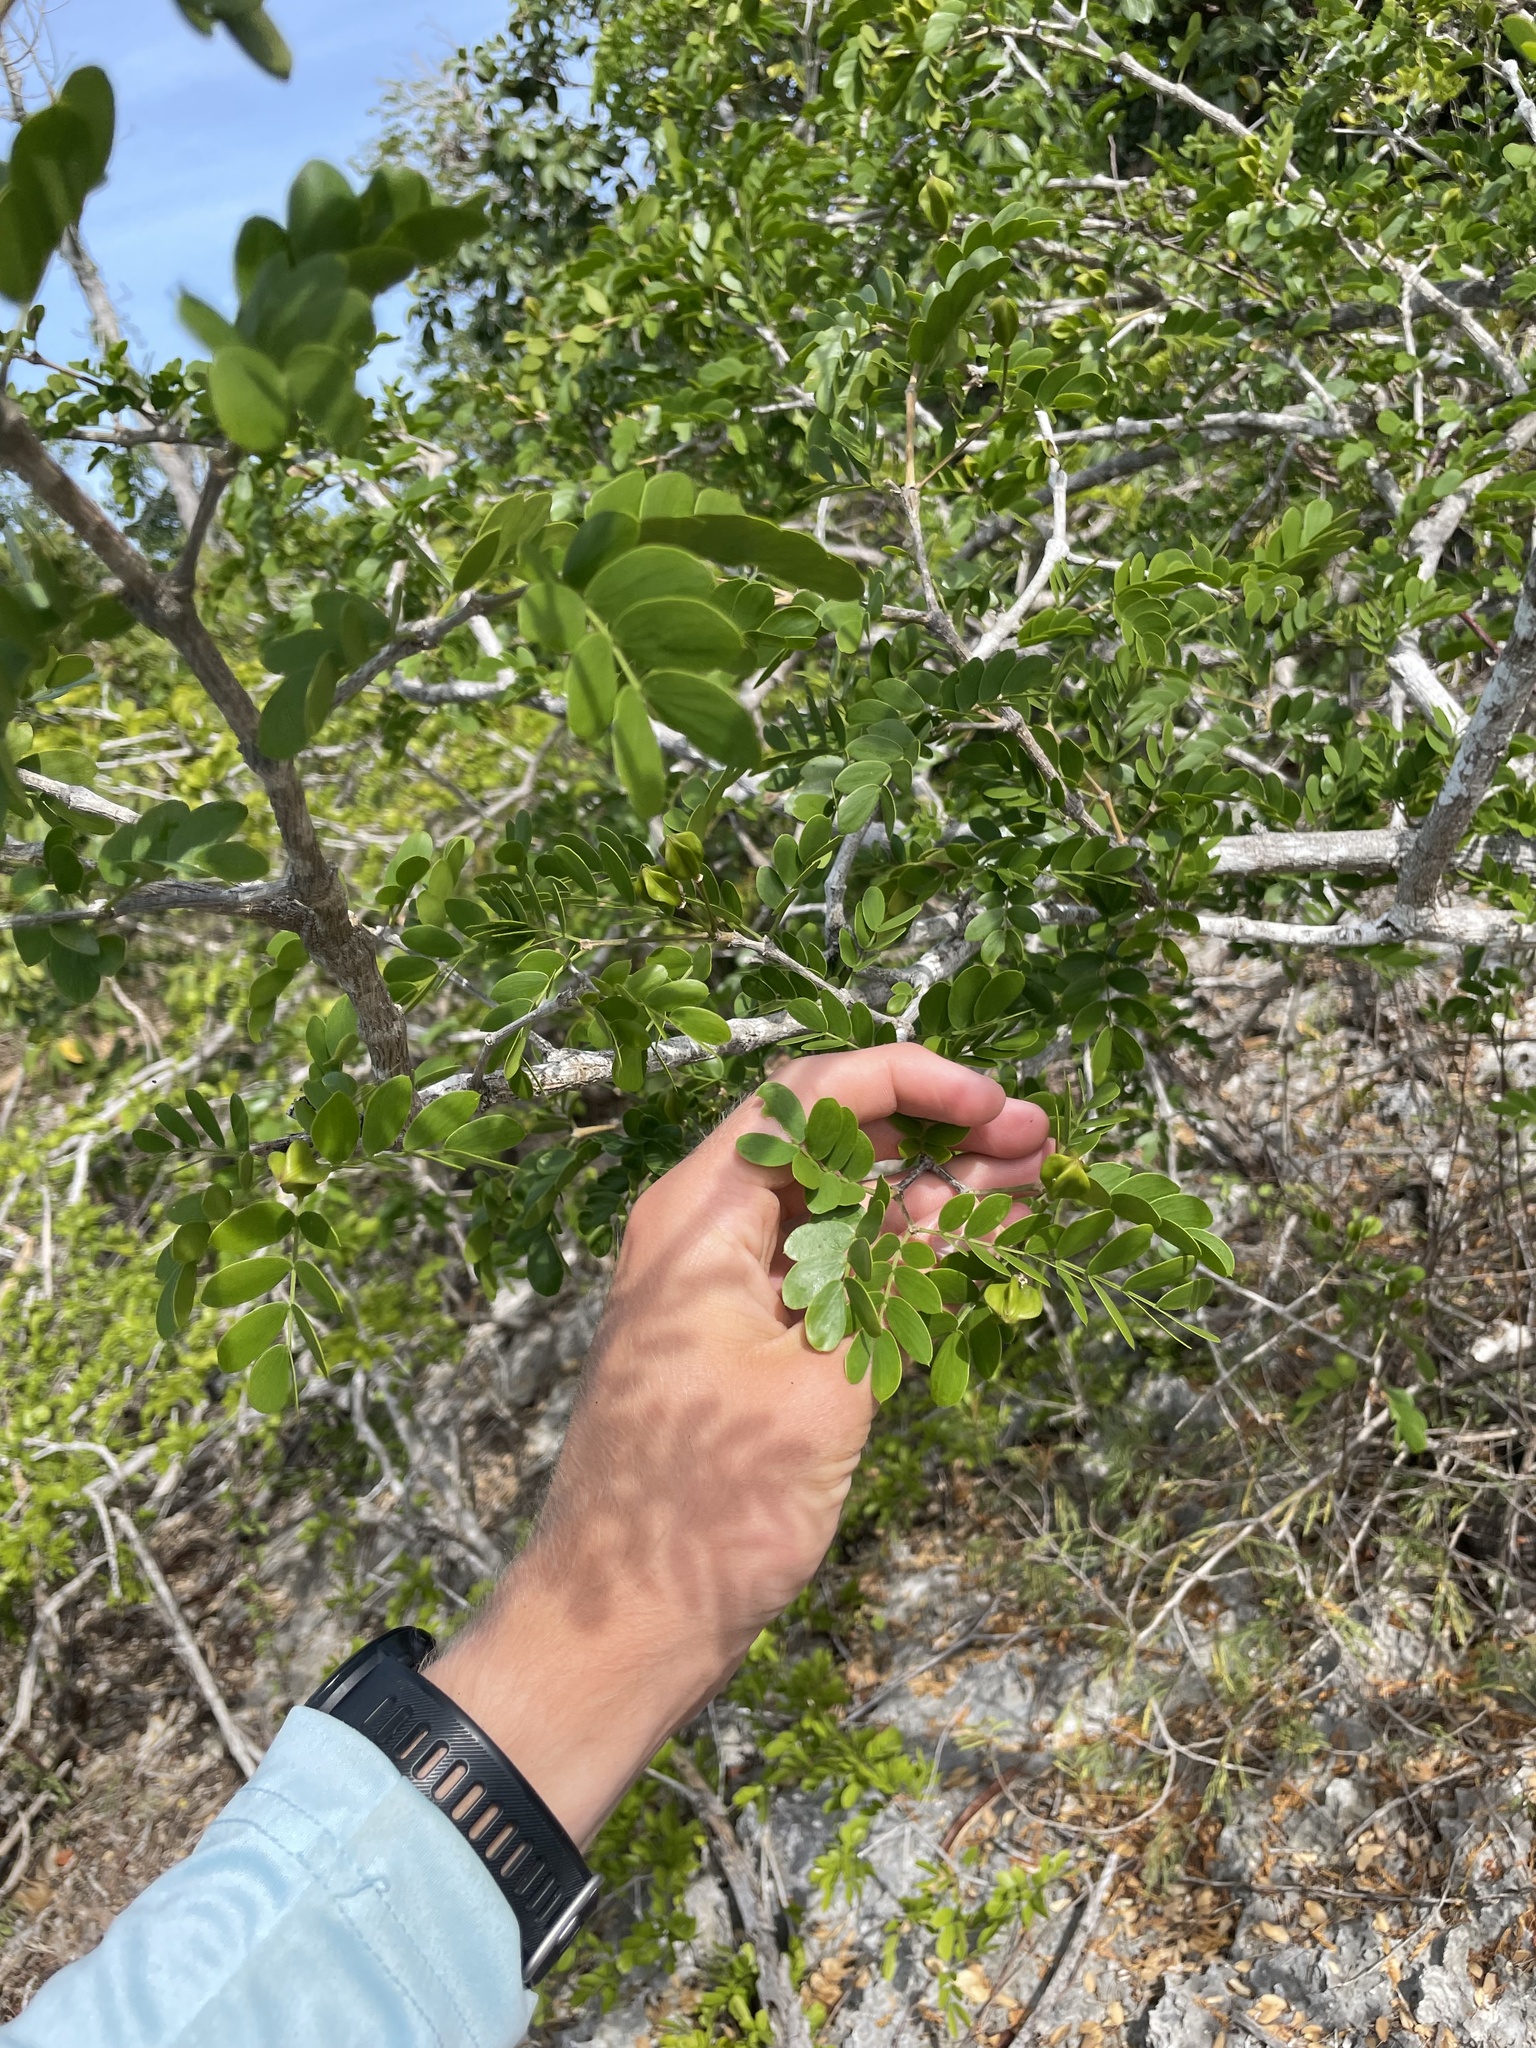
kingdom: Plantae
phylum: Tracheophyta
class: Magnoliopsida
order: Zygophyllales
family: Zygophyllaceae
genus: Guaiacum
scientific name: Guaiacum sanctum
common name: Holywood
